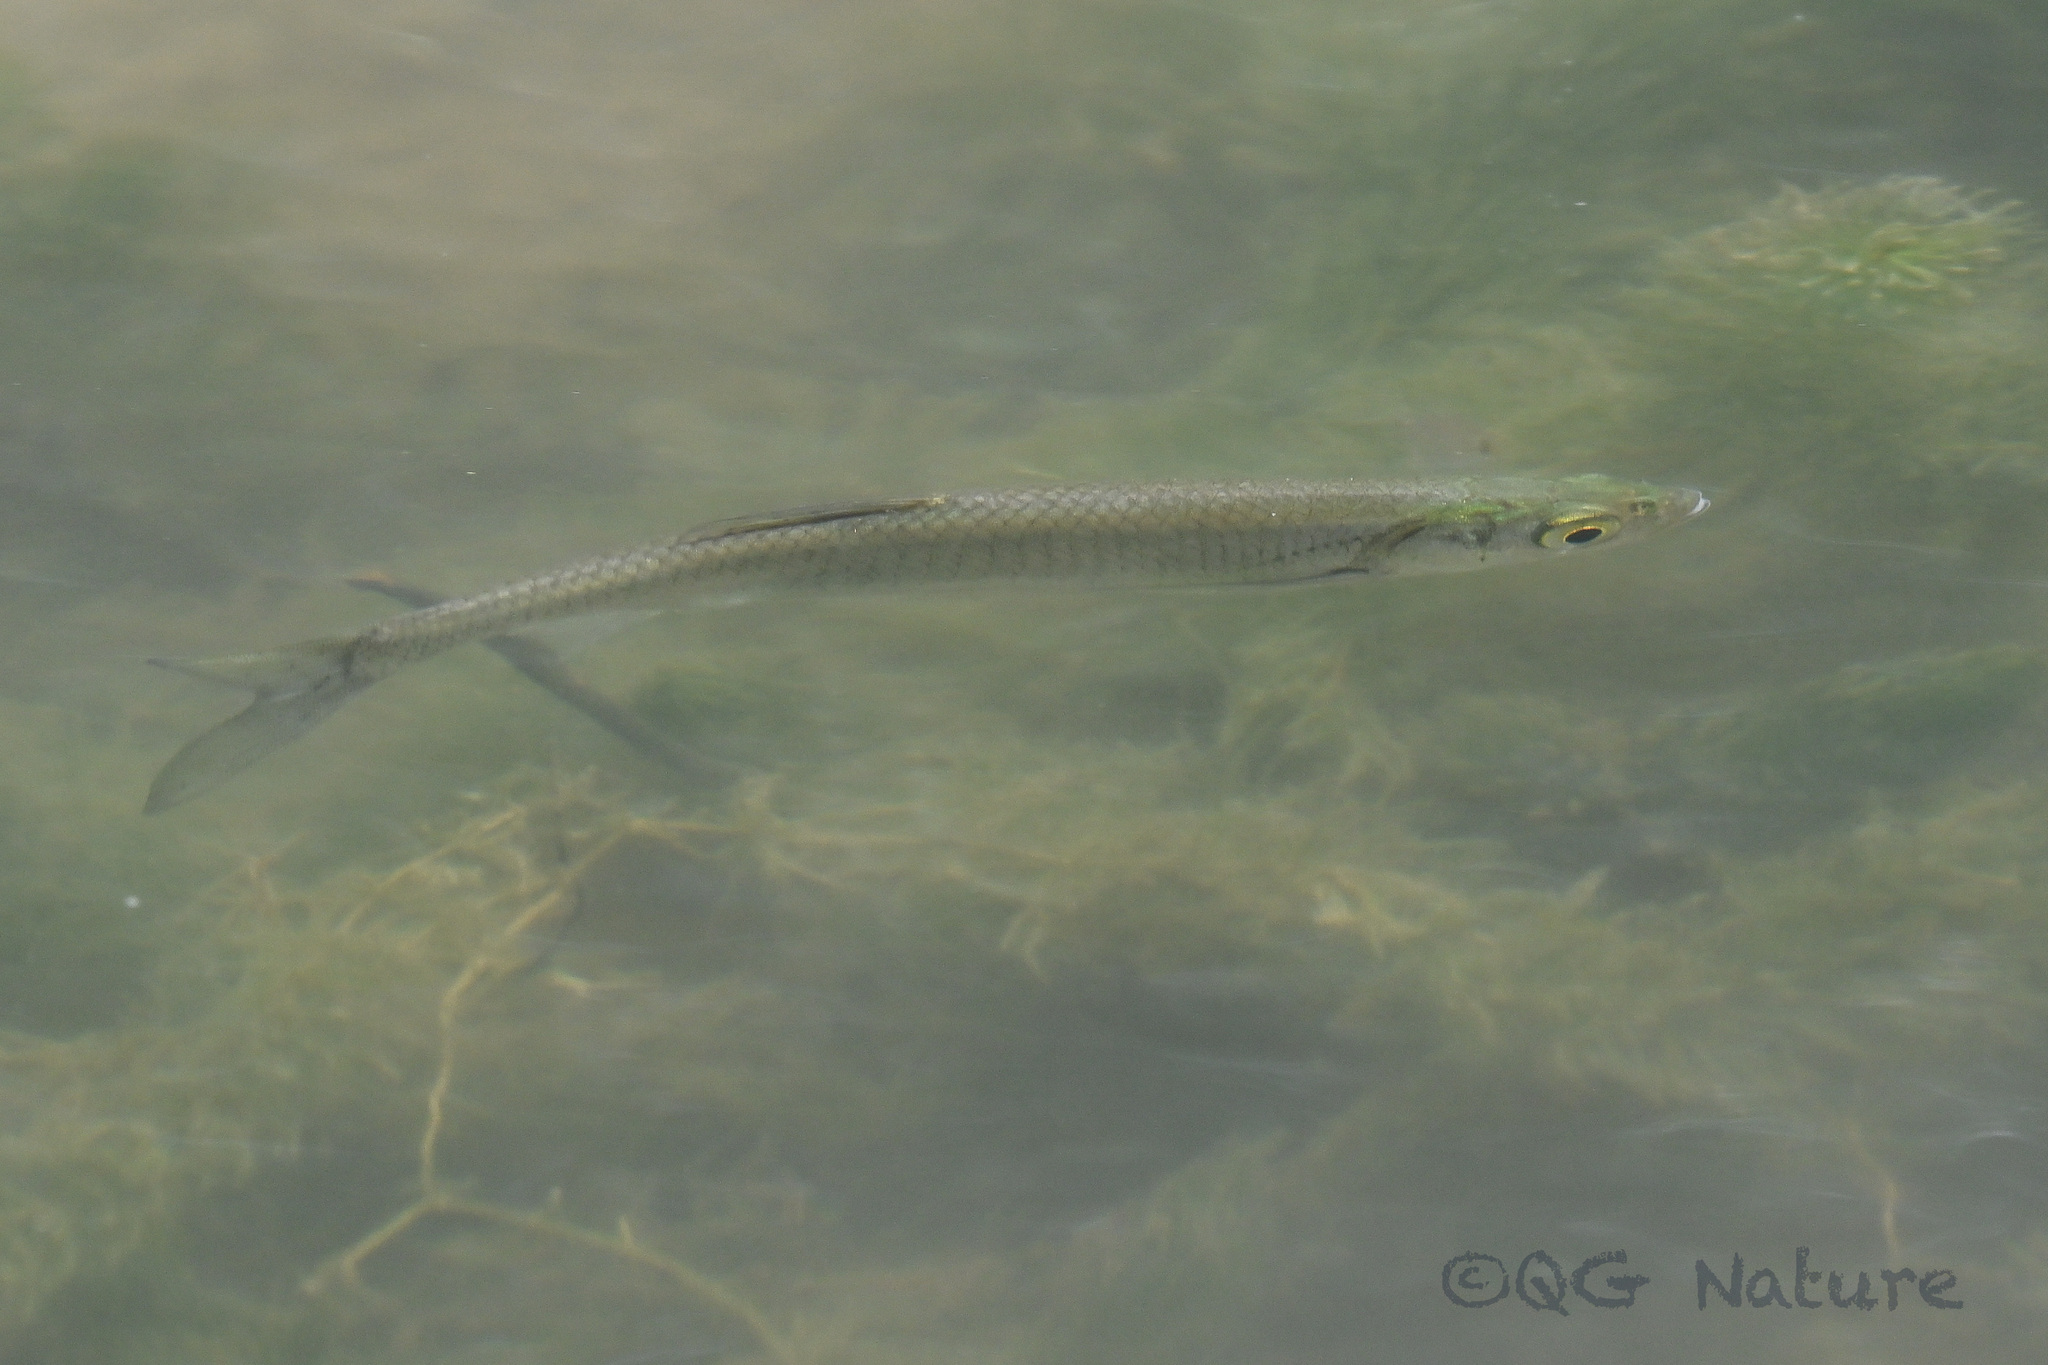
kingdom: Animalia
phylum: Chordata
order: Cypriniformes
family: Cyprinidae
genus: Hemiculter
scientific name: Hemiculter leucisculus
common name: Common sawbelly
